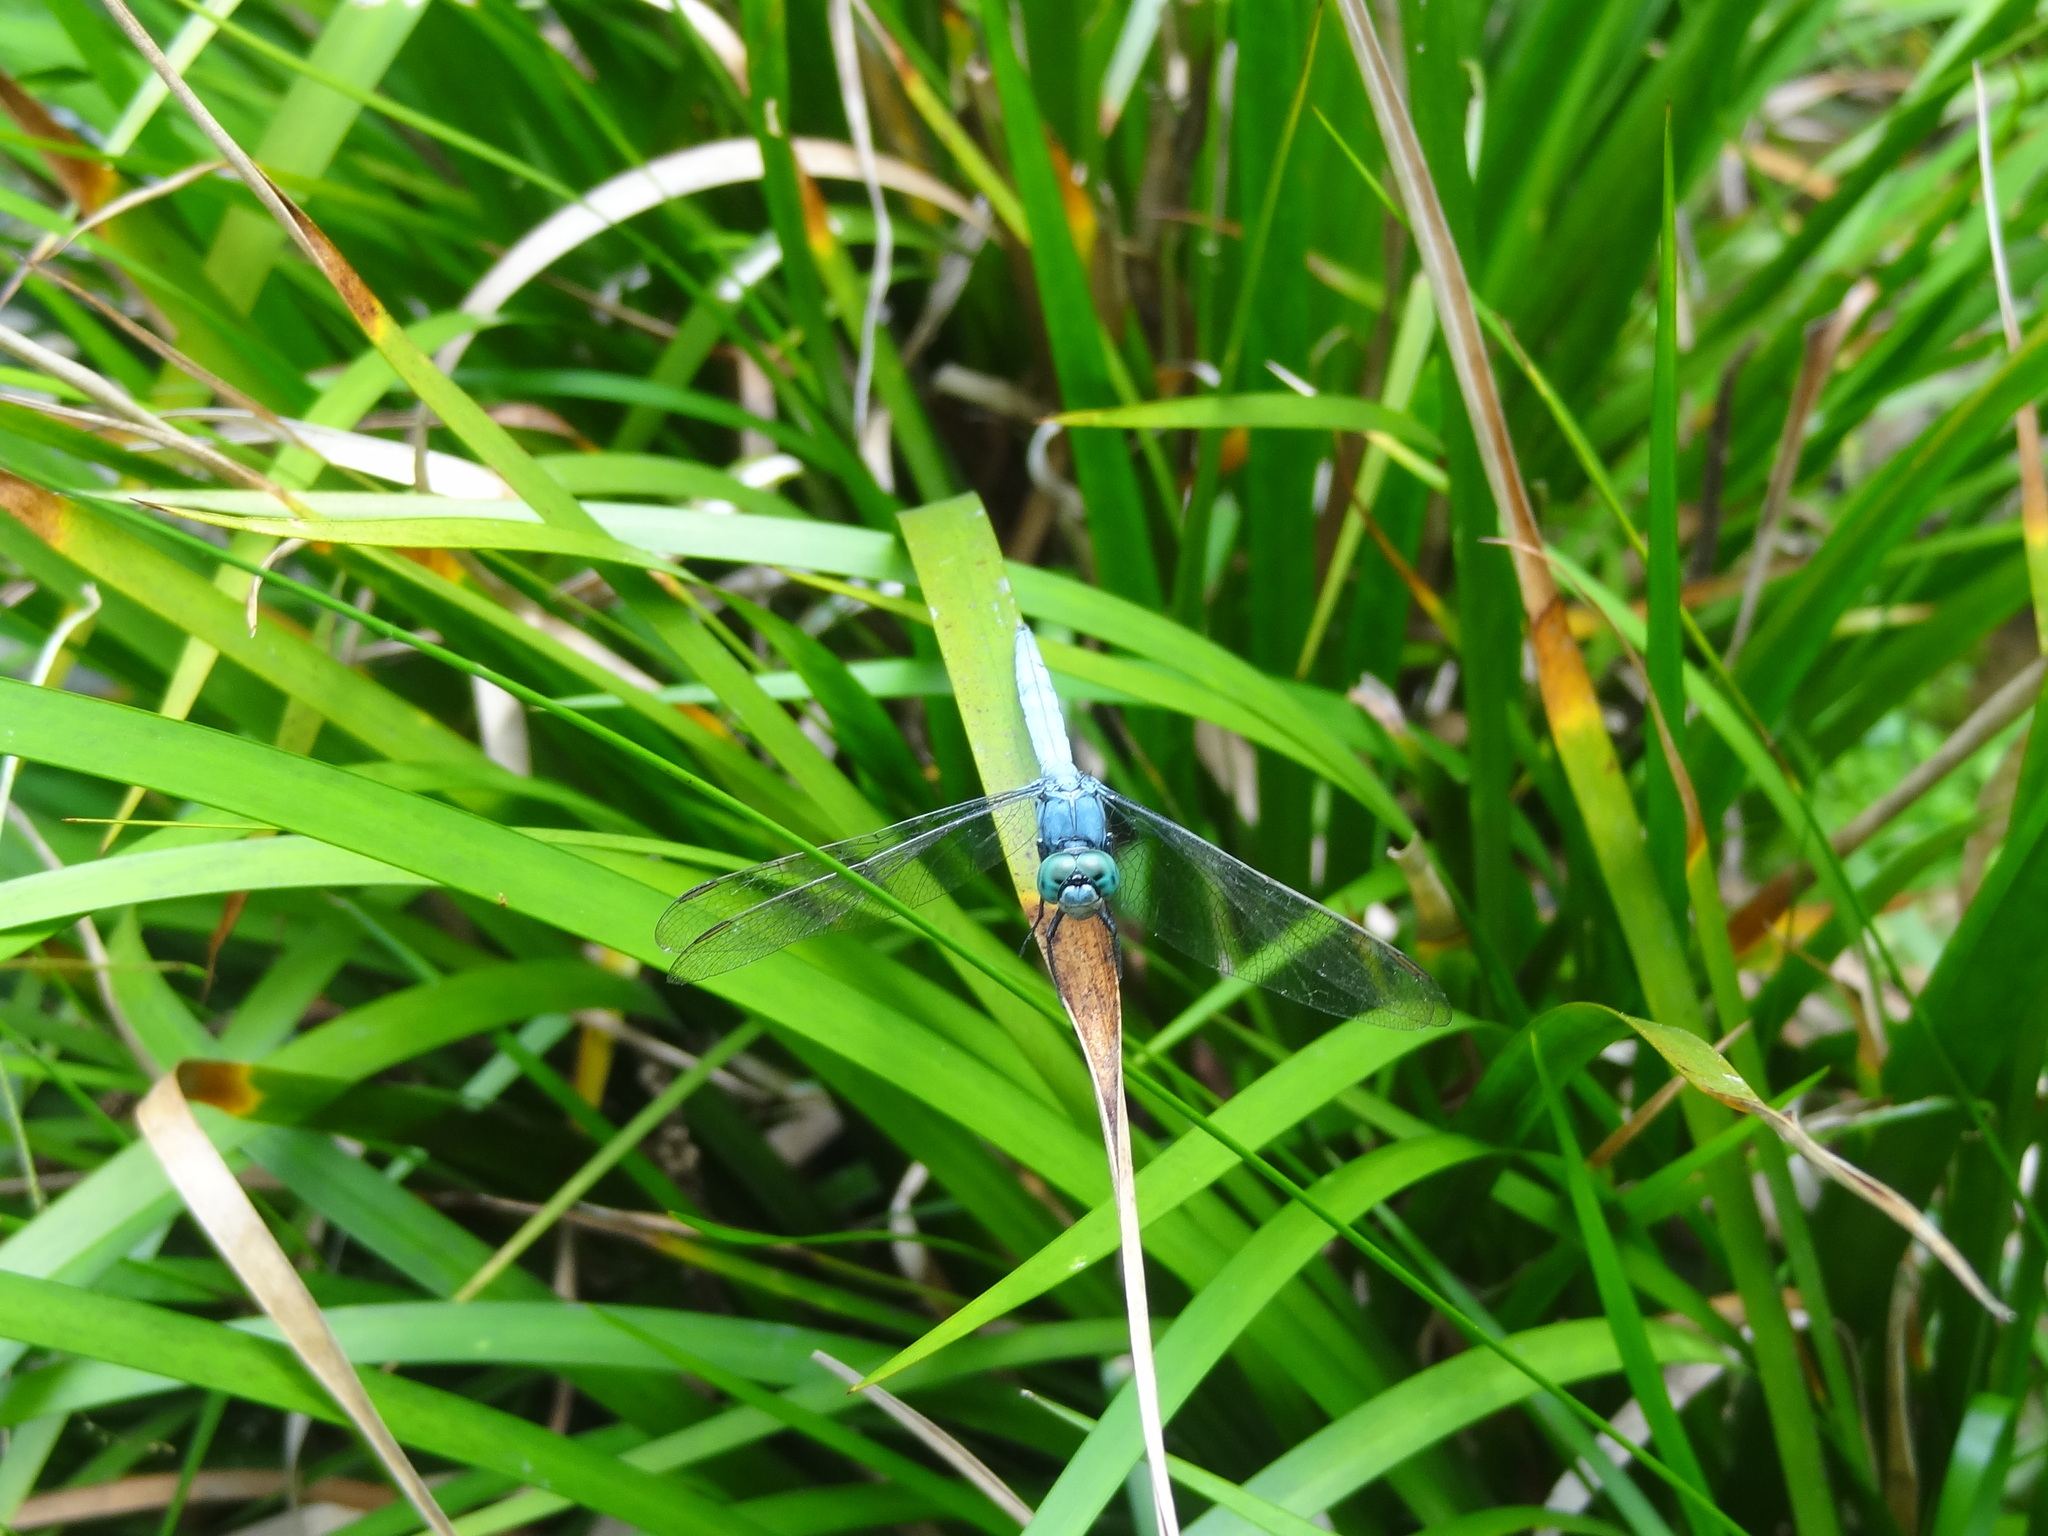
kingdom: Animalia
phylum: Arthropoda
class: Insecta
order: Odonata
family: Libellulidae
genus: Orthetrum
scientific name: Orthetrum luzonicum
